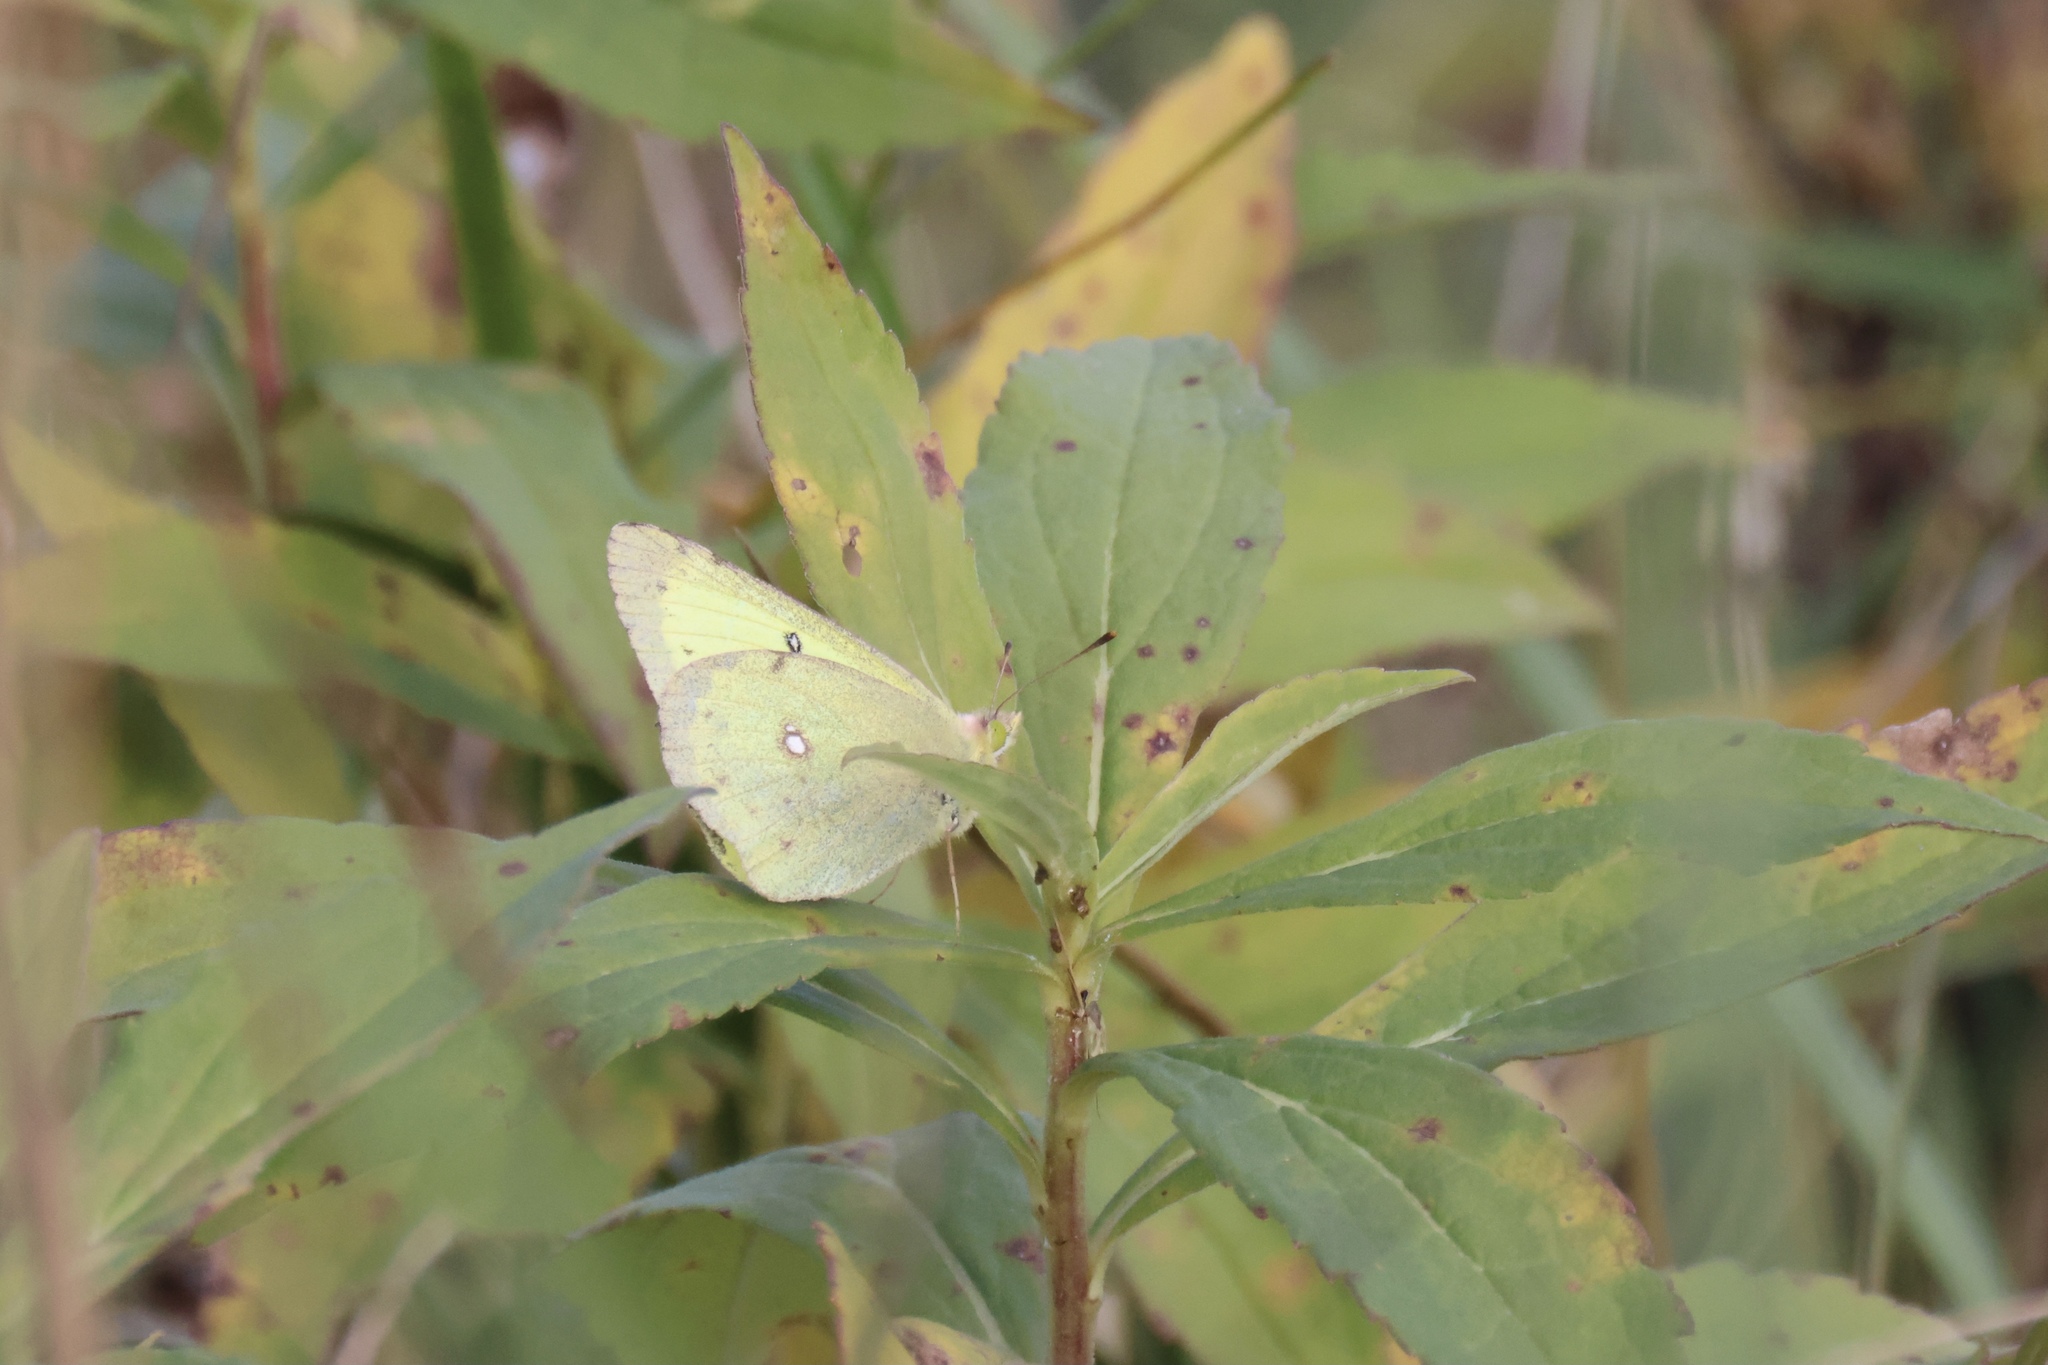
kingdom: Animalia
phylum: Arthropoda
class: Insecta
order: Lepidoptera
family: Pieridae
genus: Colias
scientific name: Colias philodice
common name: Clouded sulphur
